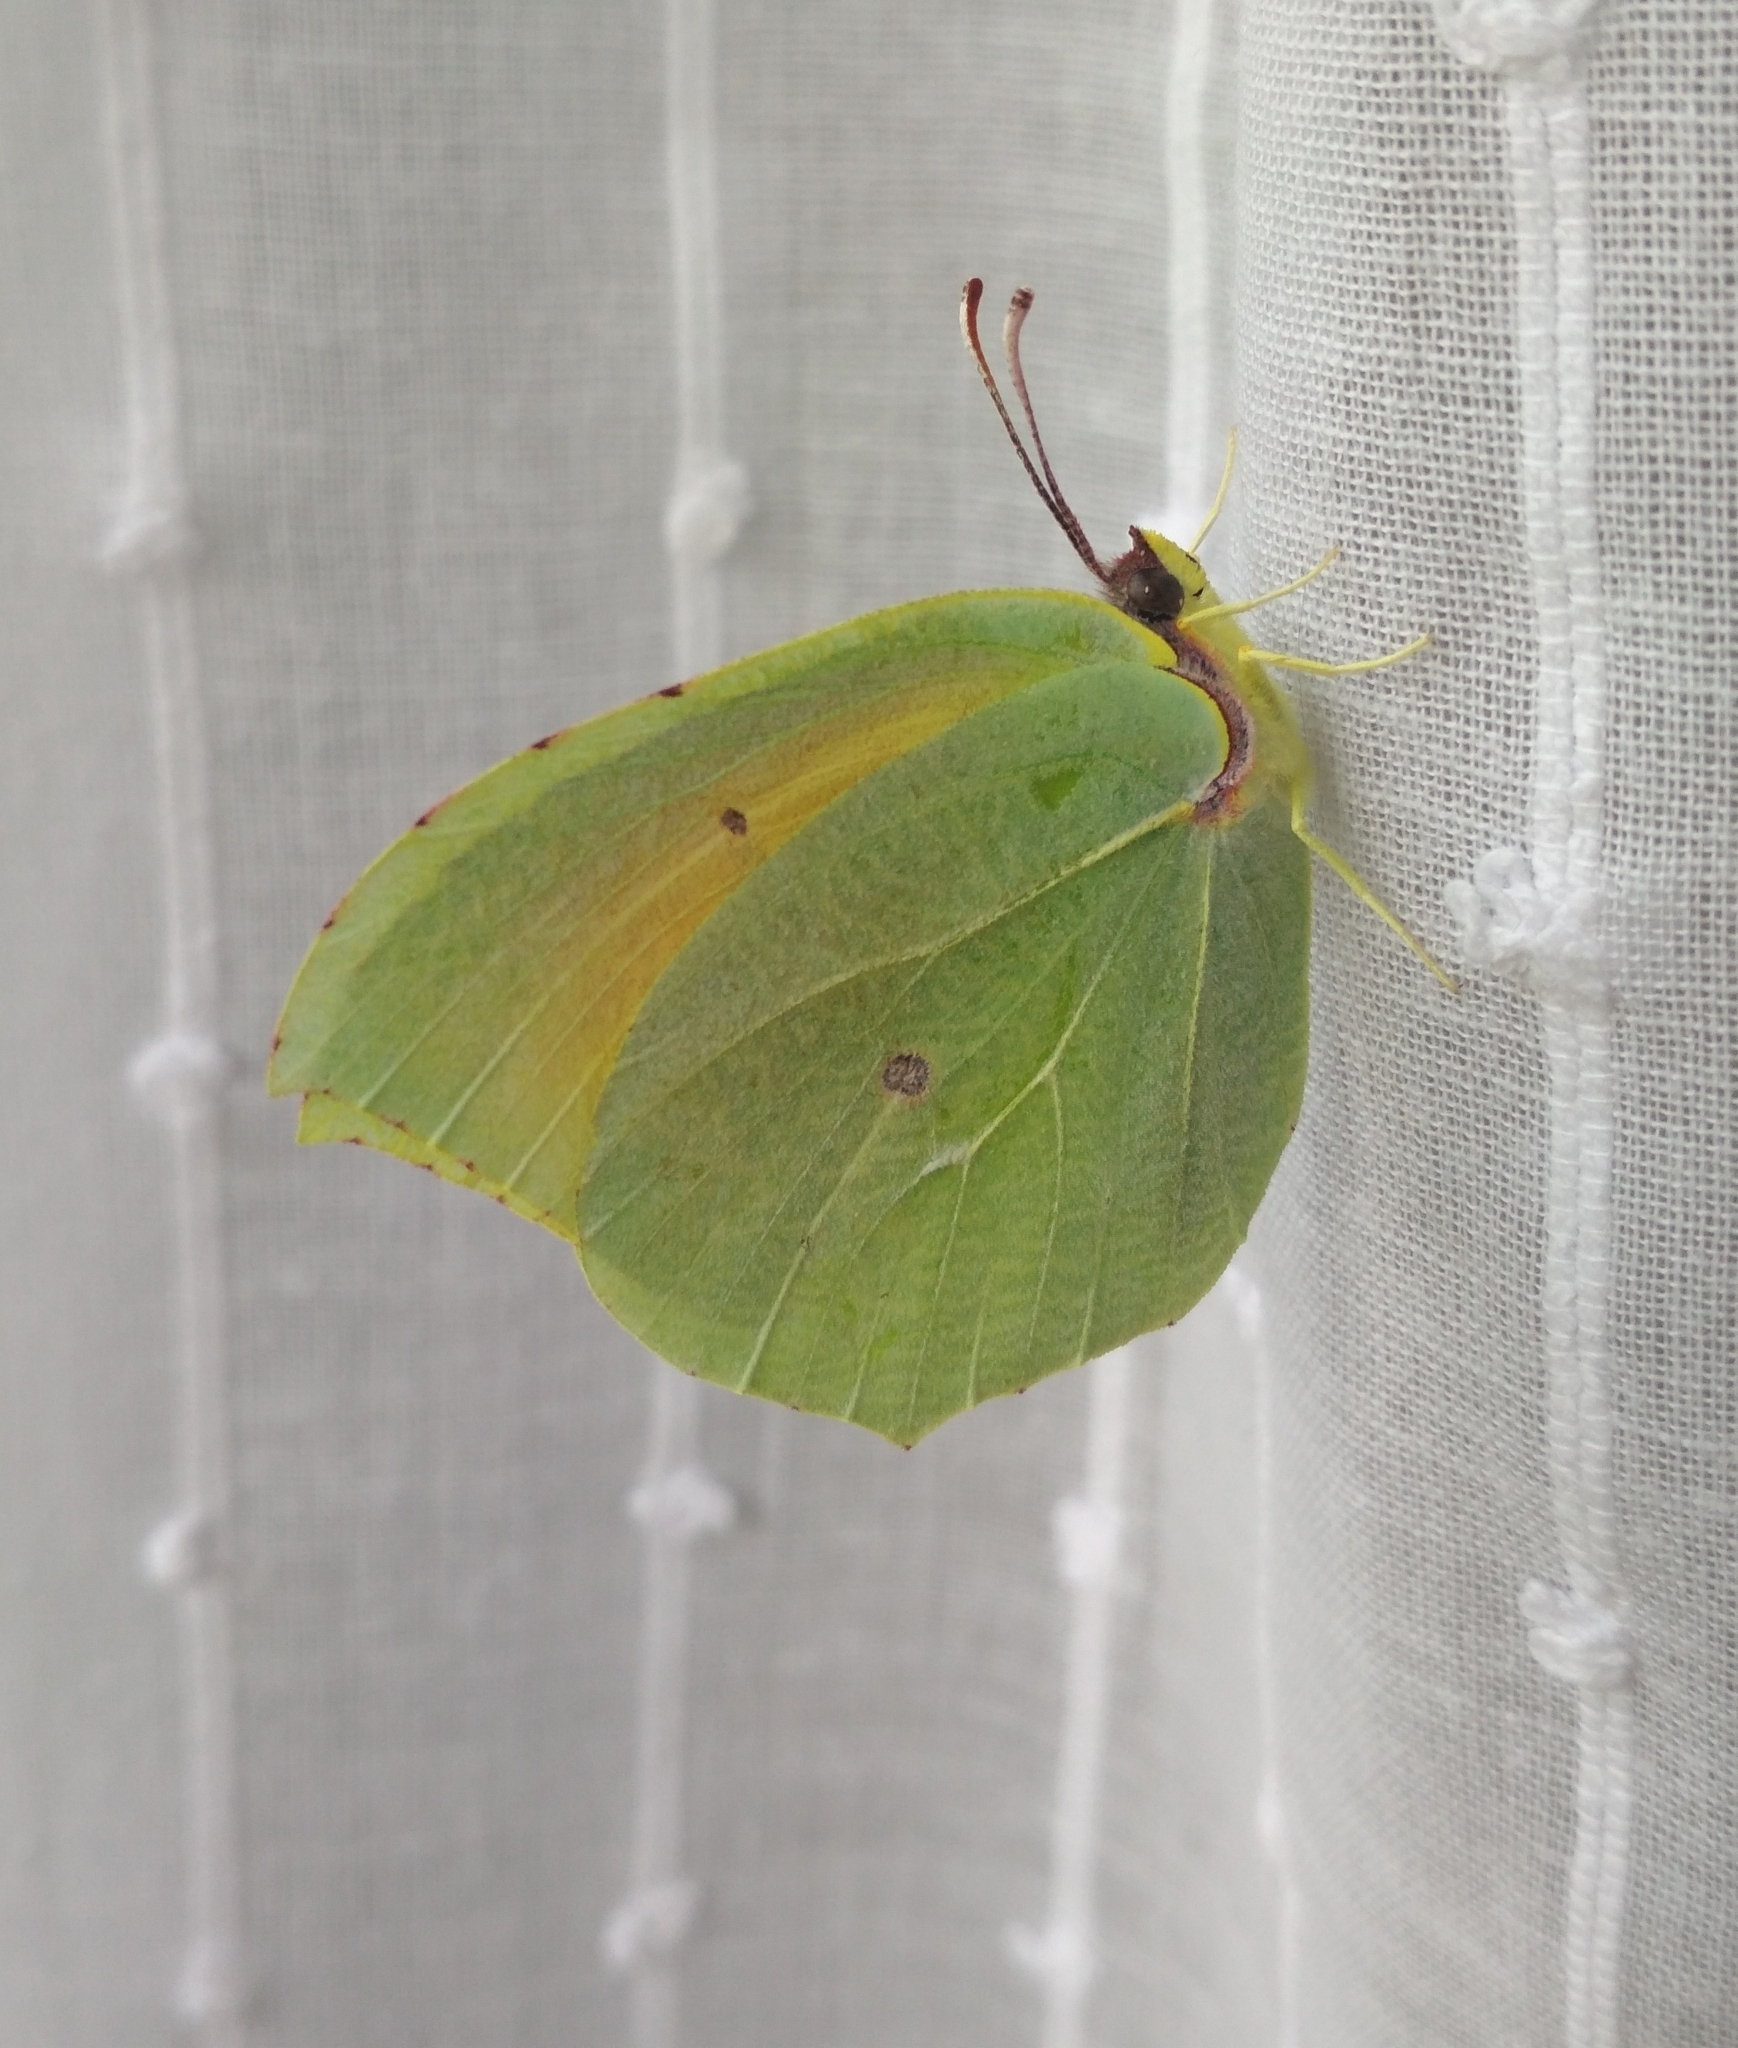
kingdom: Animalia
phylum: Arthropoda
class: Insecta
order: Lepidoptera
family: Pieridae
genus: Gonepteryx
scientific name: Gonepteryx cleopatra
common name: Cleopatra
